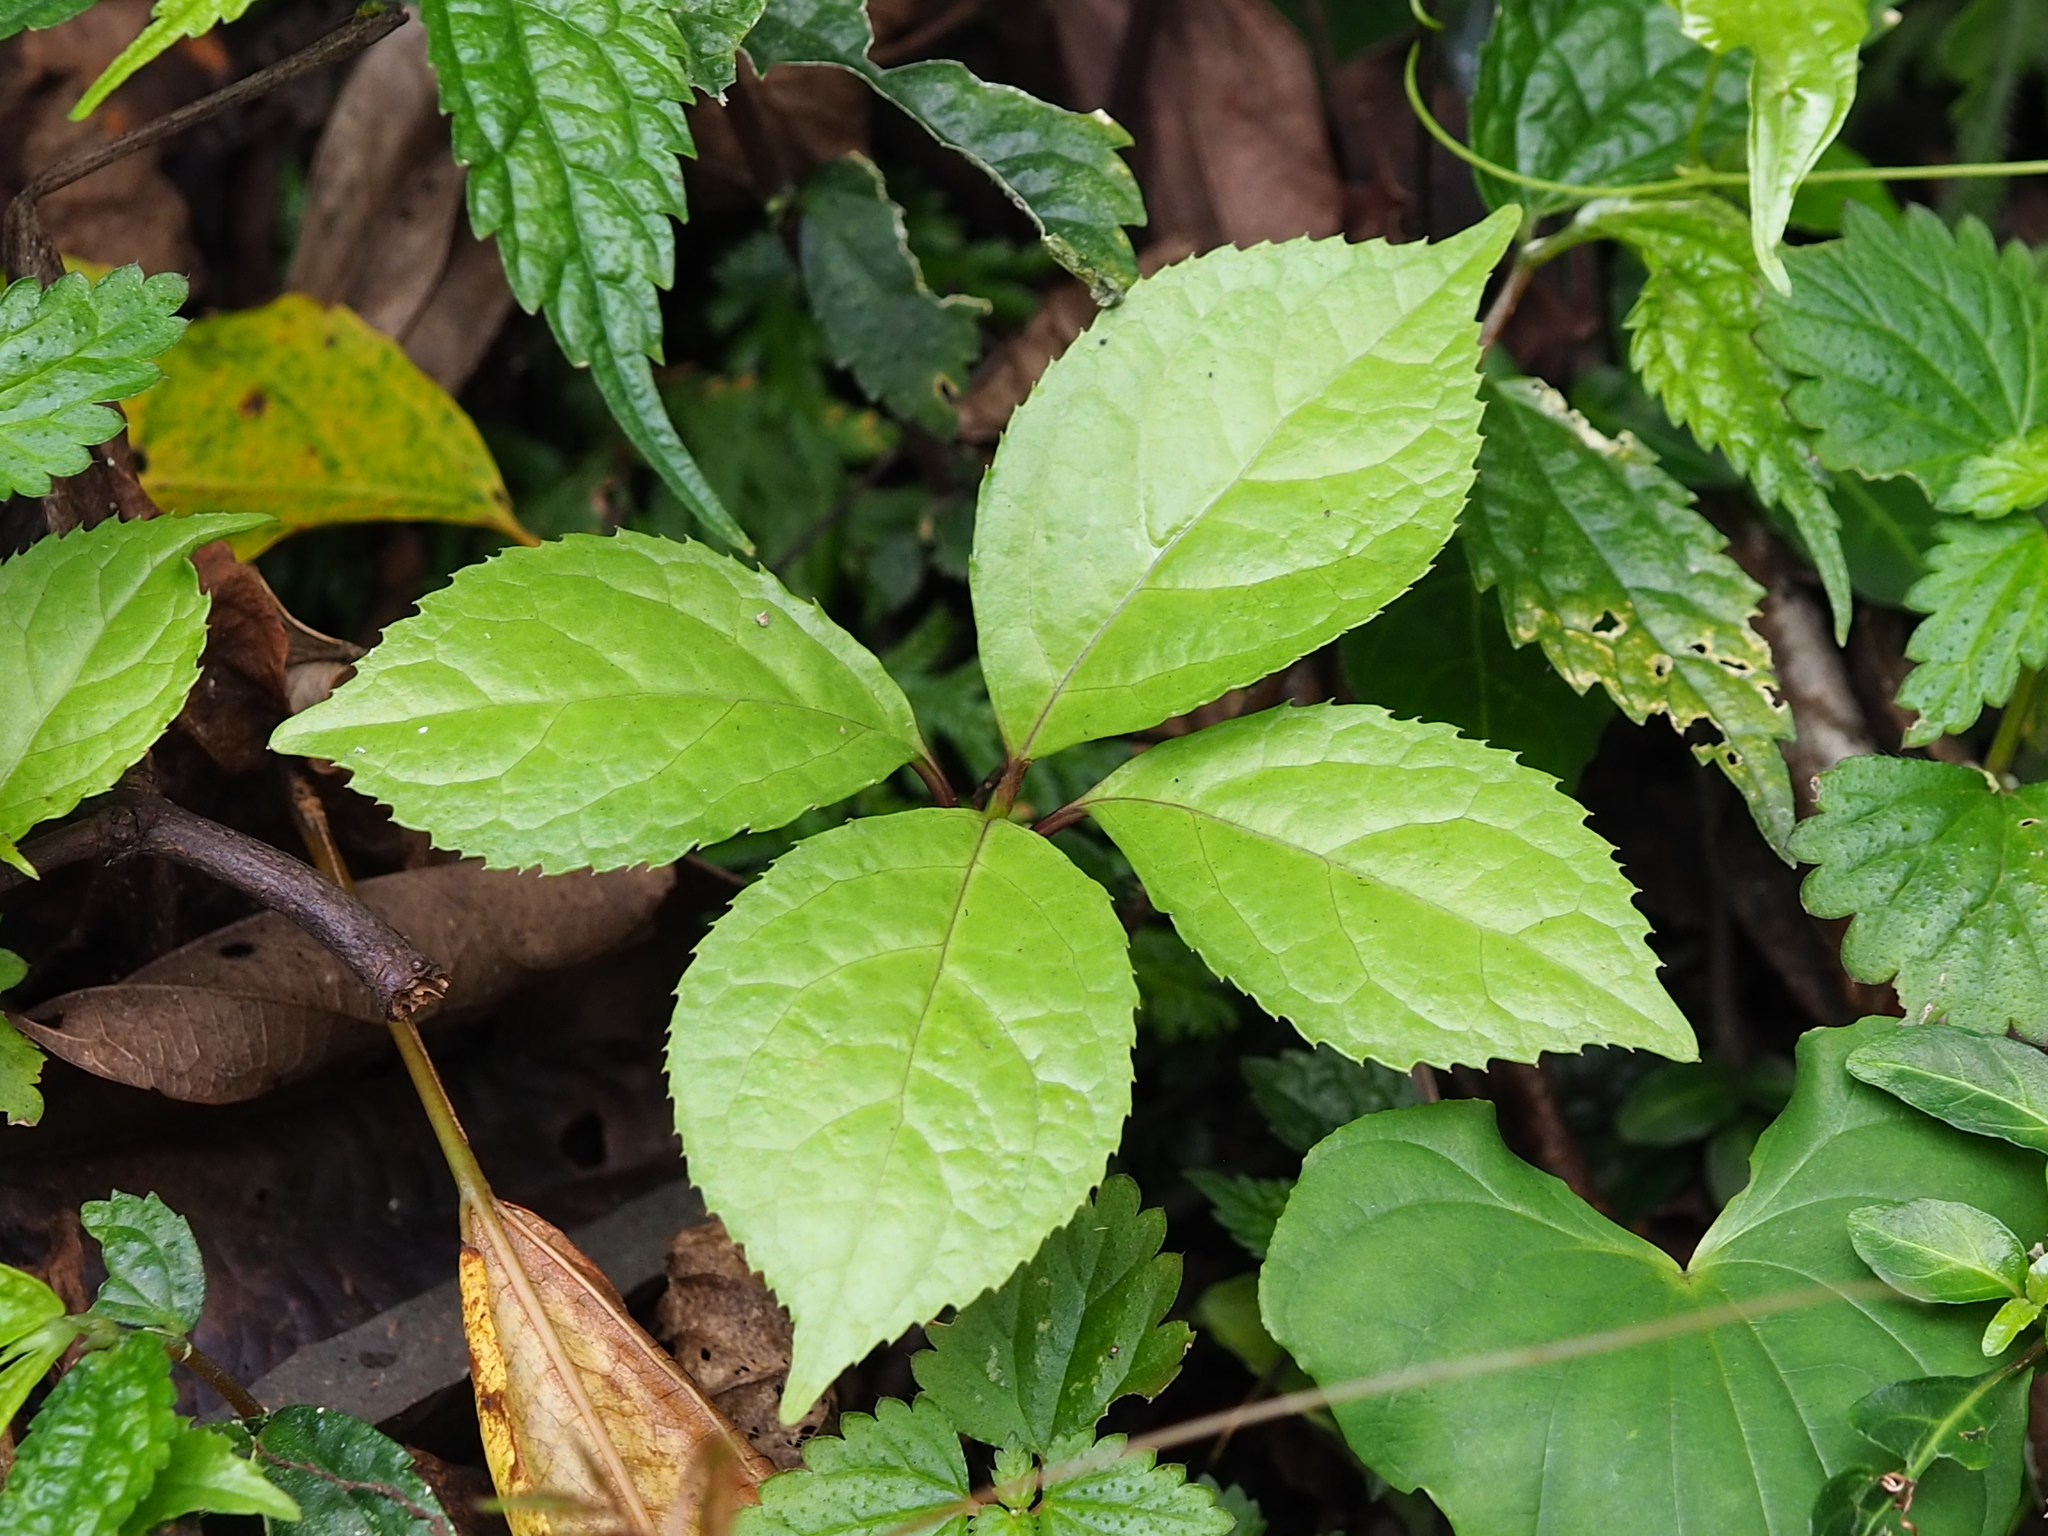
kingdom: Plantae
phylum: Tracheophyta
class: Magnoliopsida
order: Chloranthales
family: Chloranthaceae
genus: Chloranthus
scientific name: Chloranthus oldhamii
